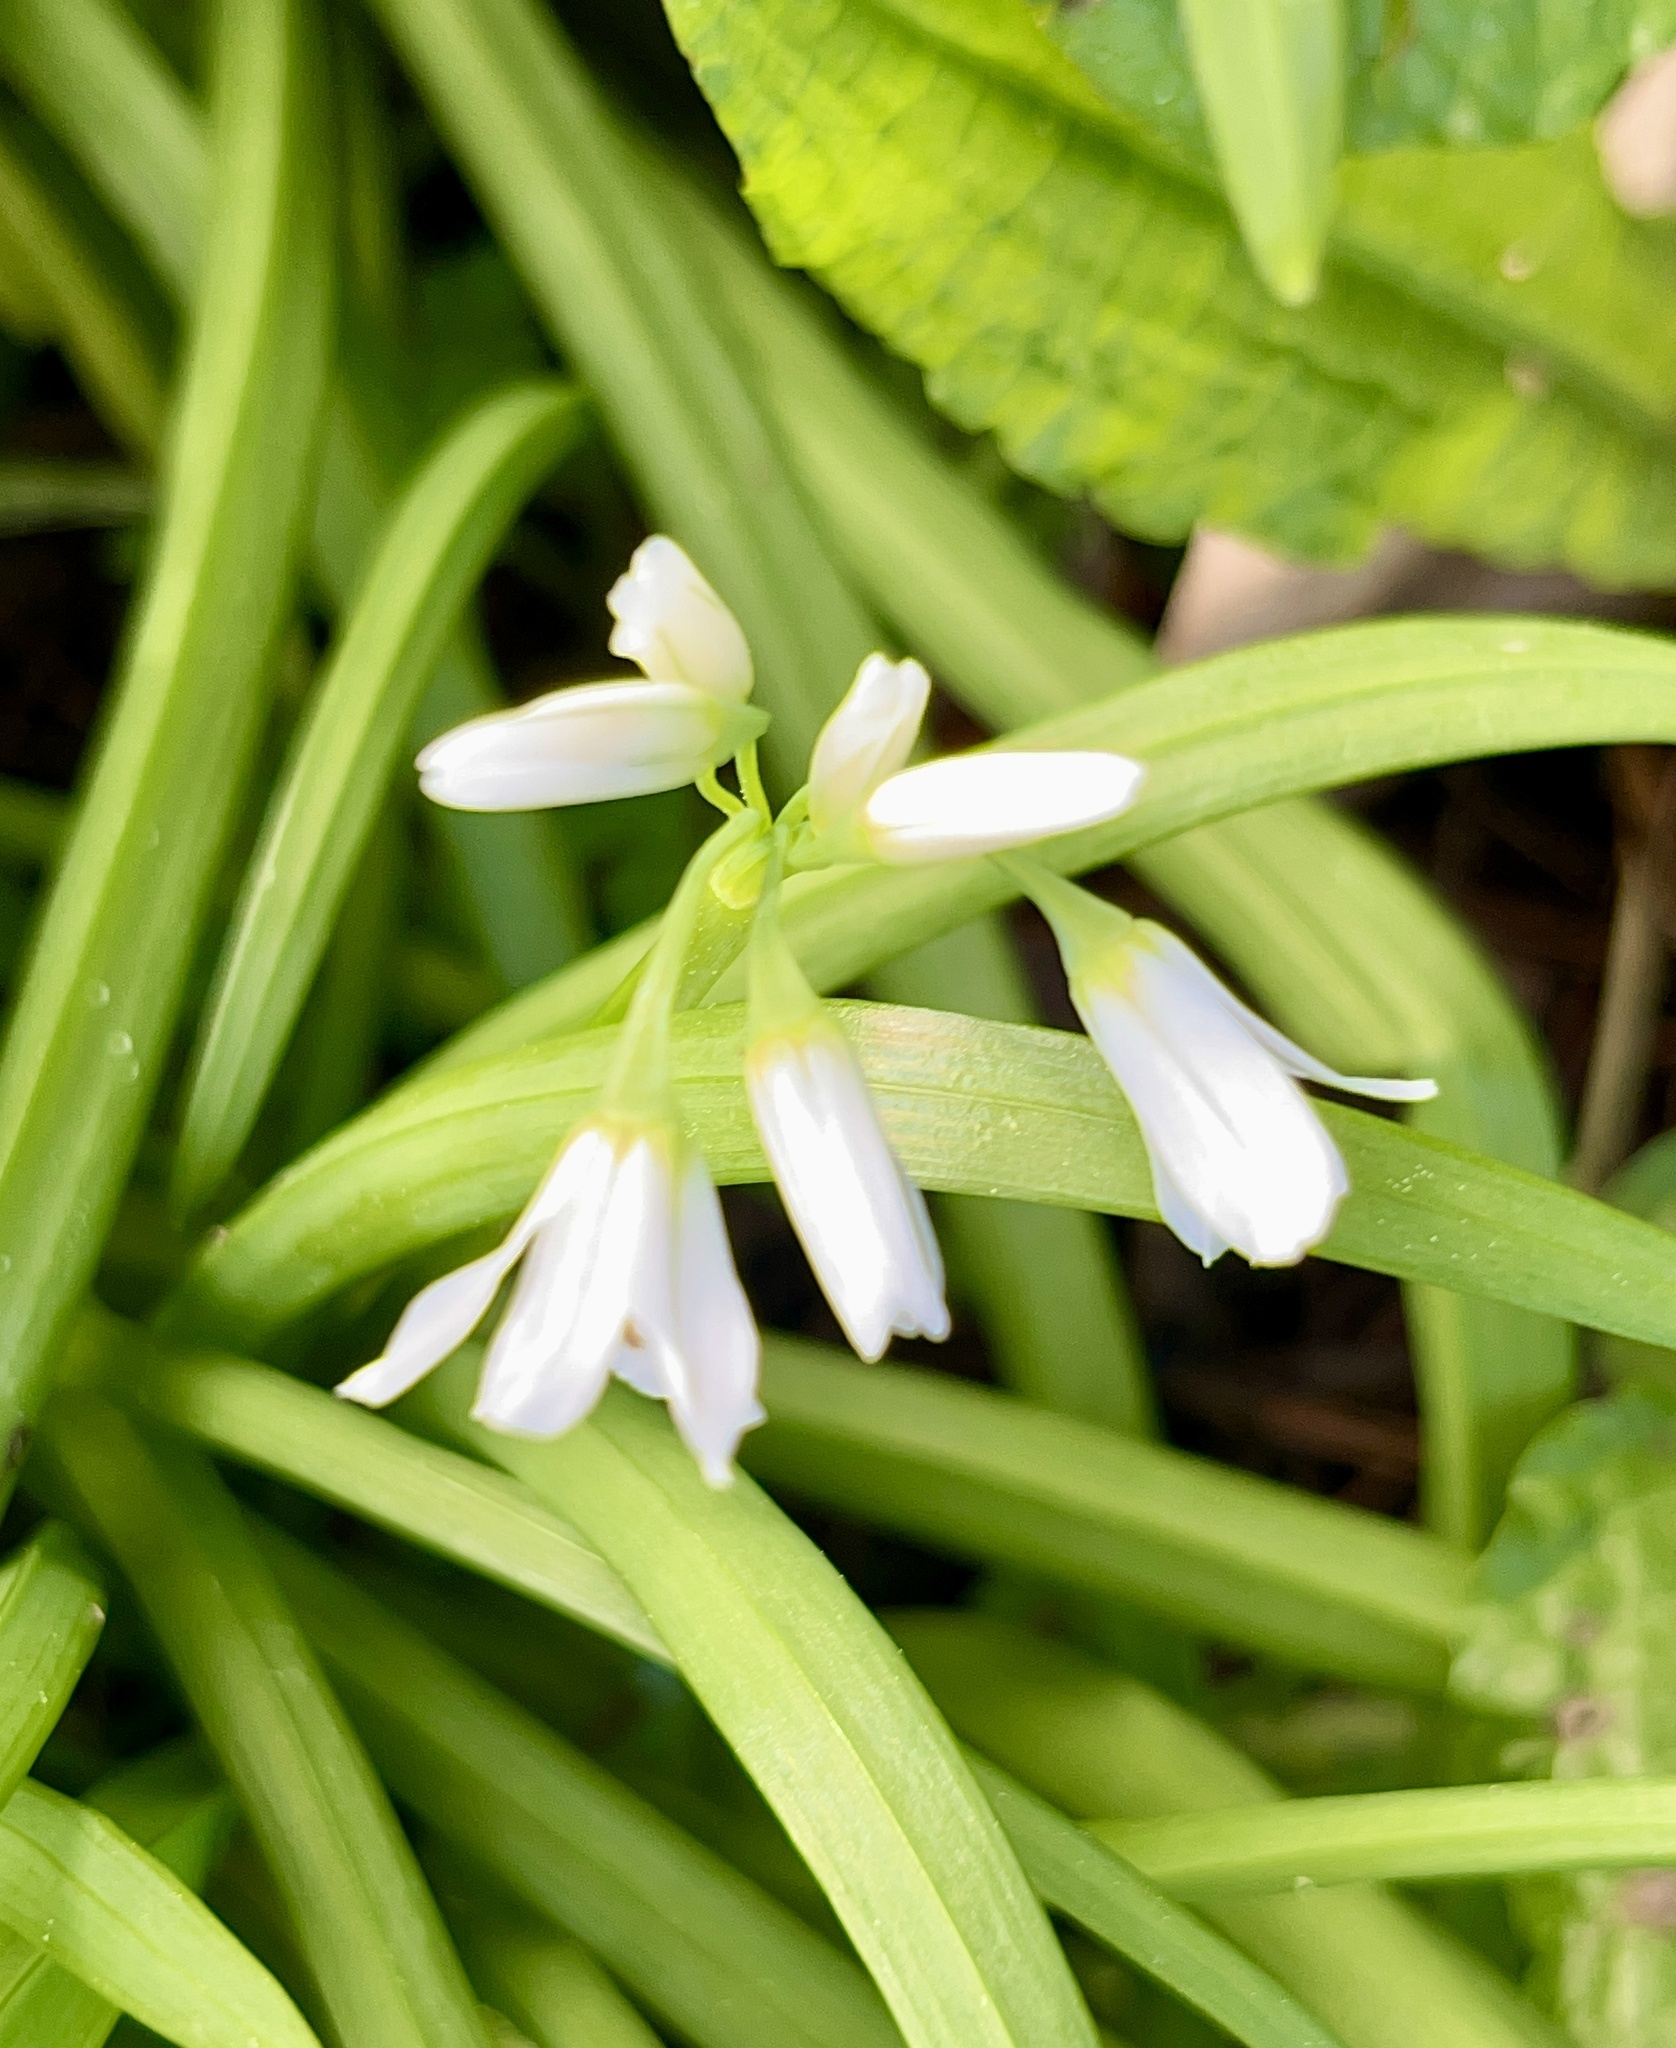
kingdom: Plantae
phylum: Tracheophyta
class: Liliopsida
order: Asparagales
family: Amaryllidaceae
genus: Allium
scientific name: Allium triquetrum
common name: Three-cornered garlic
